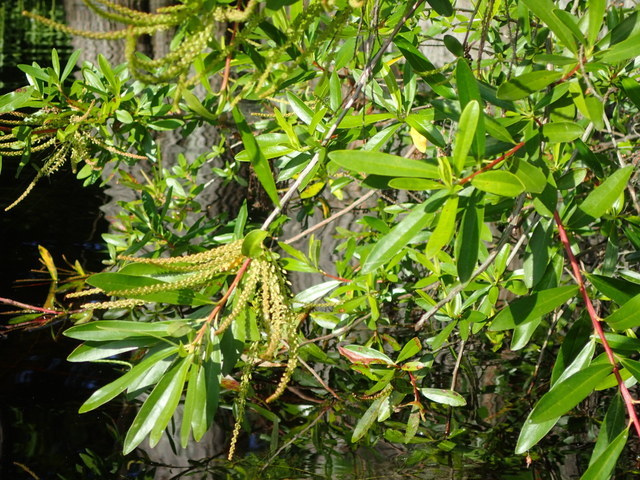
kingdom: Plantae
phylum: Tracheophyta
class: Magnoliopsida
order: Ericales
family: Cyrillaceae
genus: Cyrilla
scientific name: Cyrilla racemiflora
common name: Black titi
